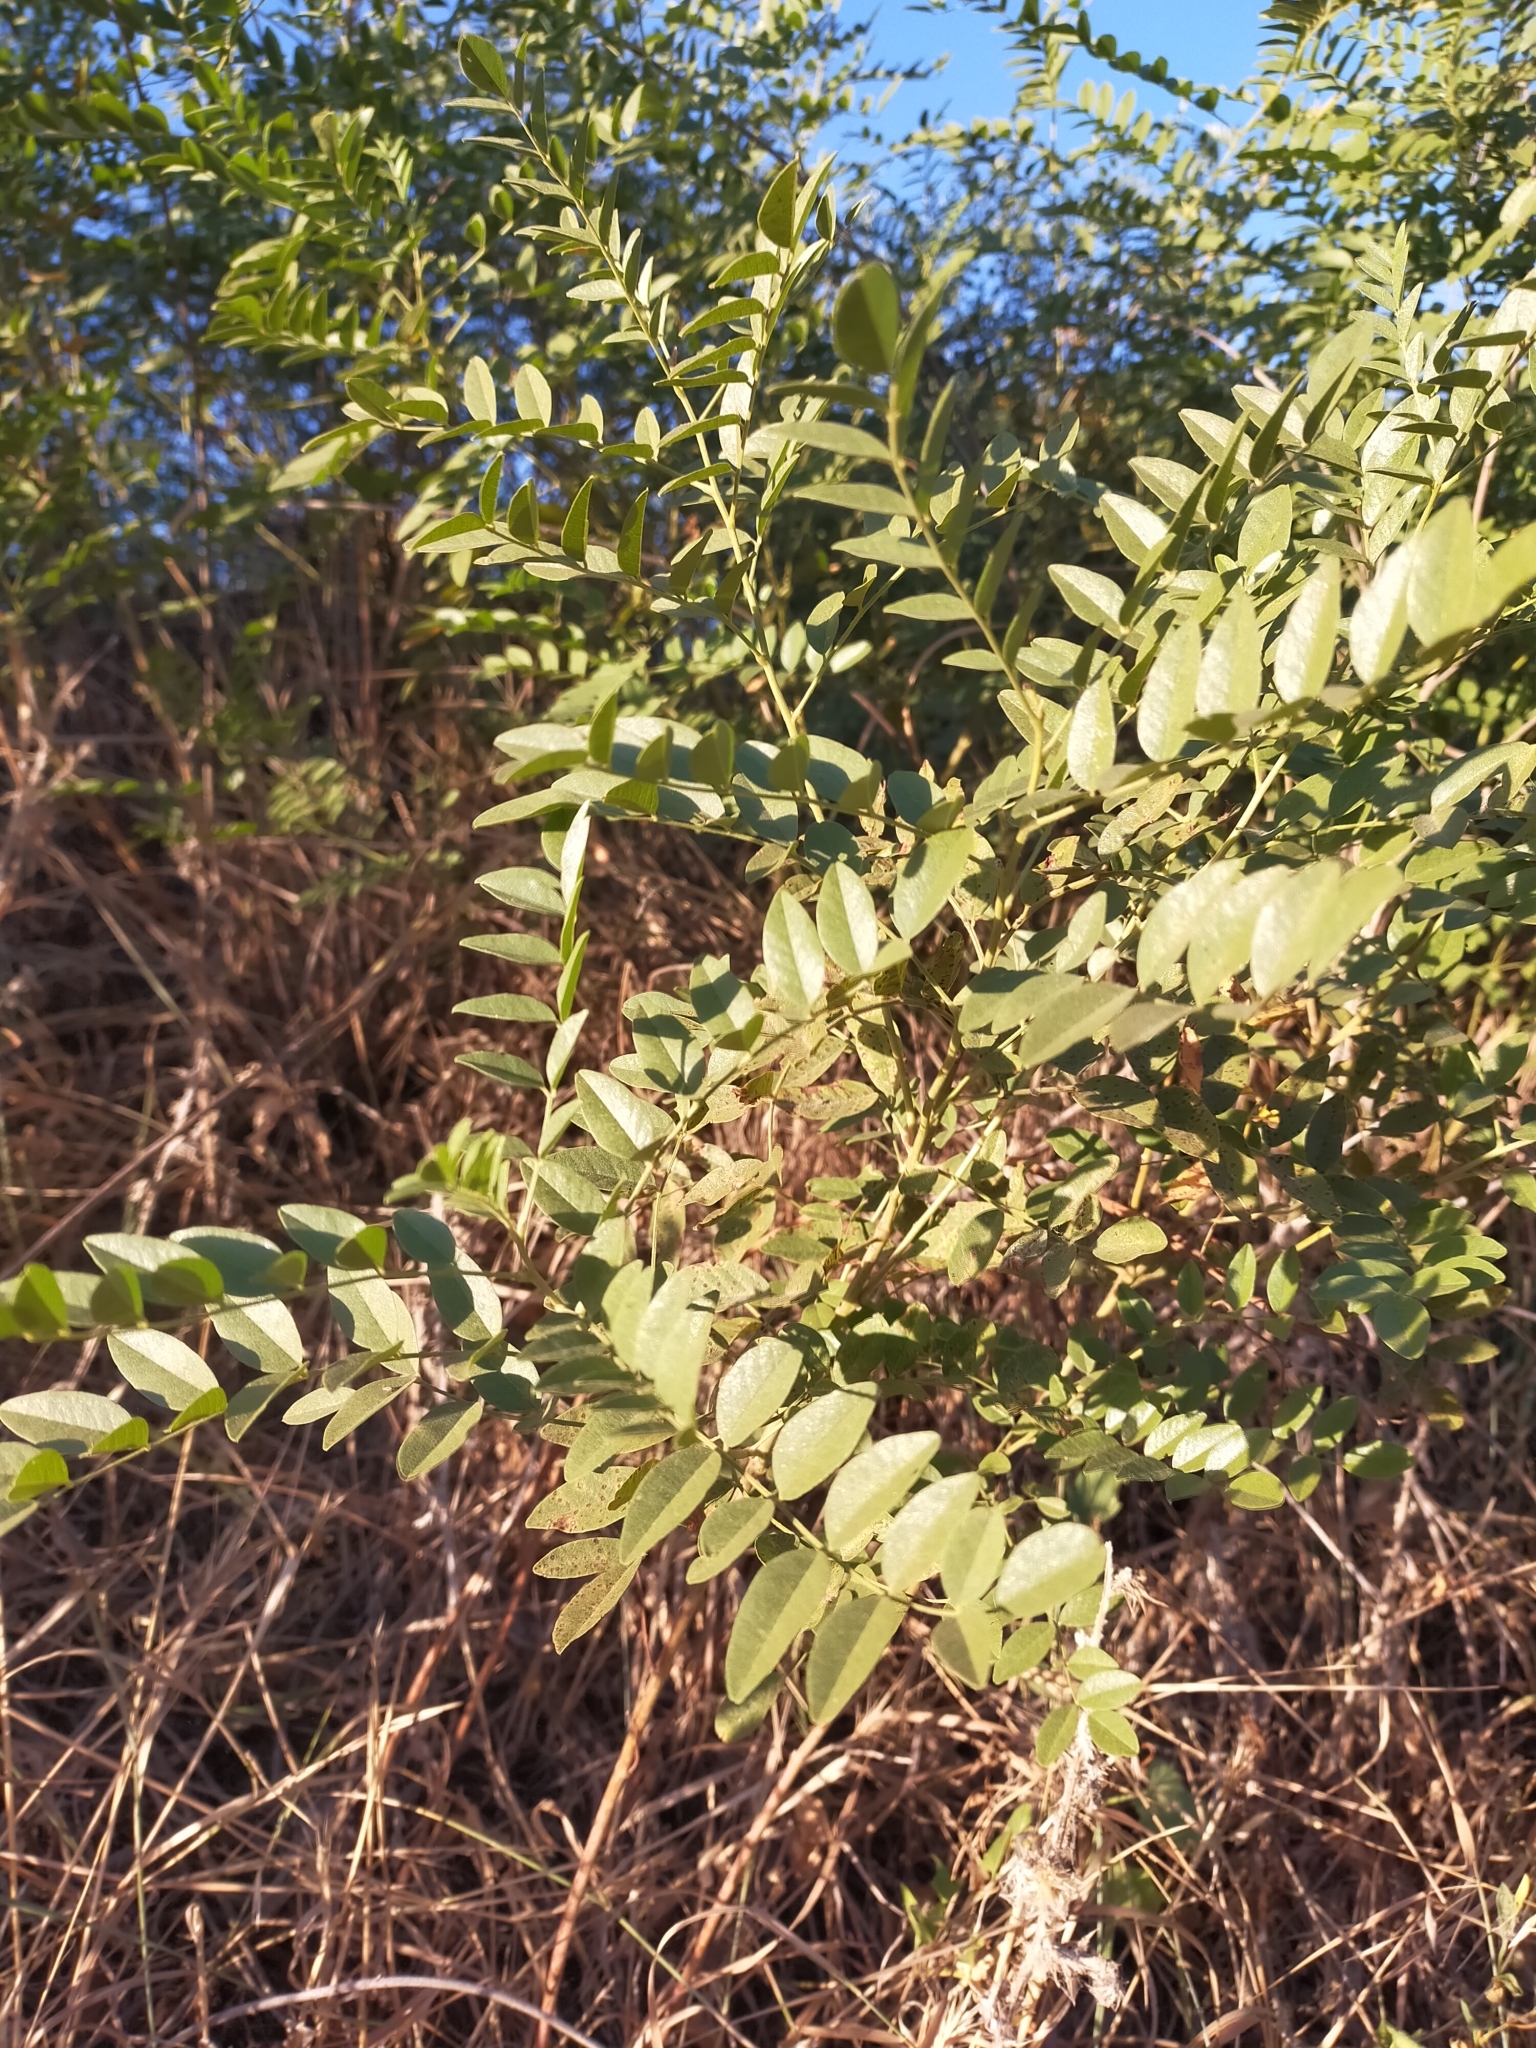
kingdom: Plantae
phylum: Tracheophyta
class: Magnoliopsida
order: Fabales
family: Fabaceae
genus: Glycyrrhiza
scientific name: Glycyrrhiza glabra
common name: Liquorice
